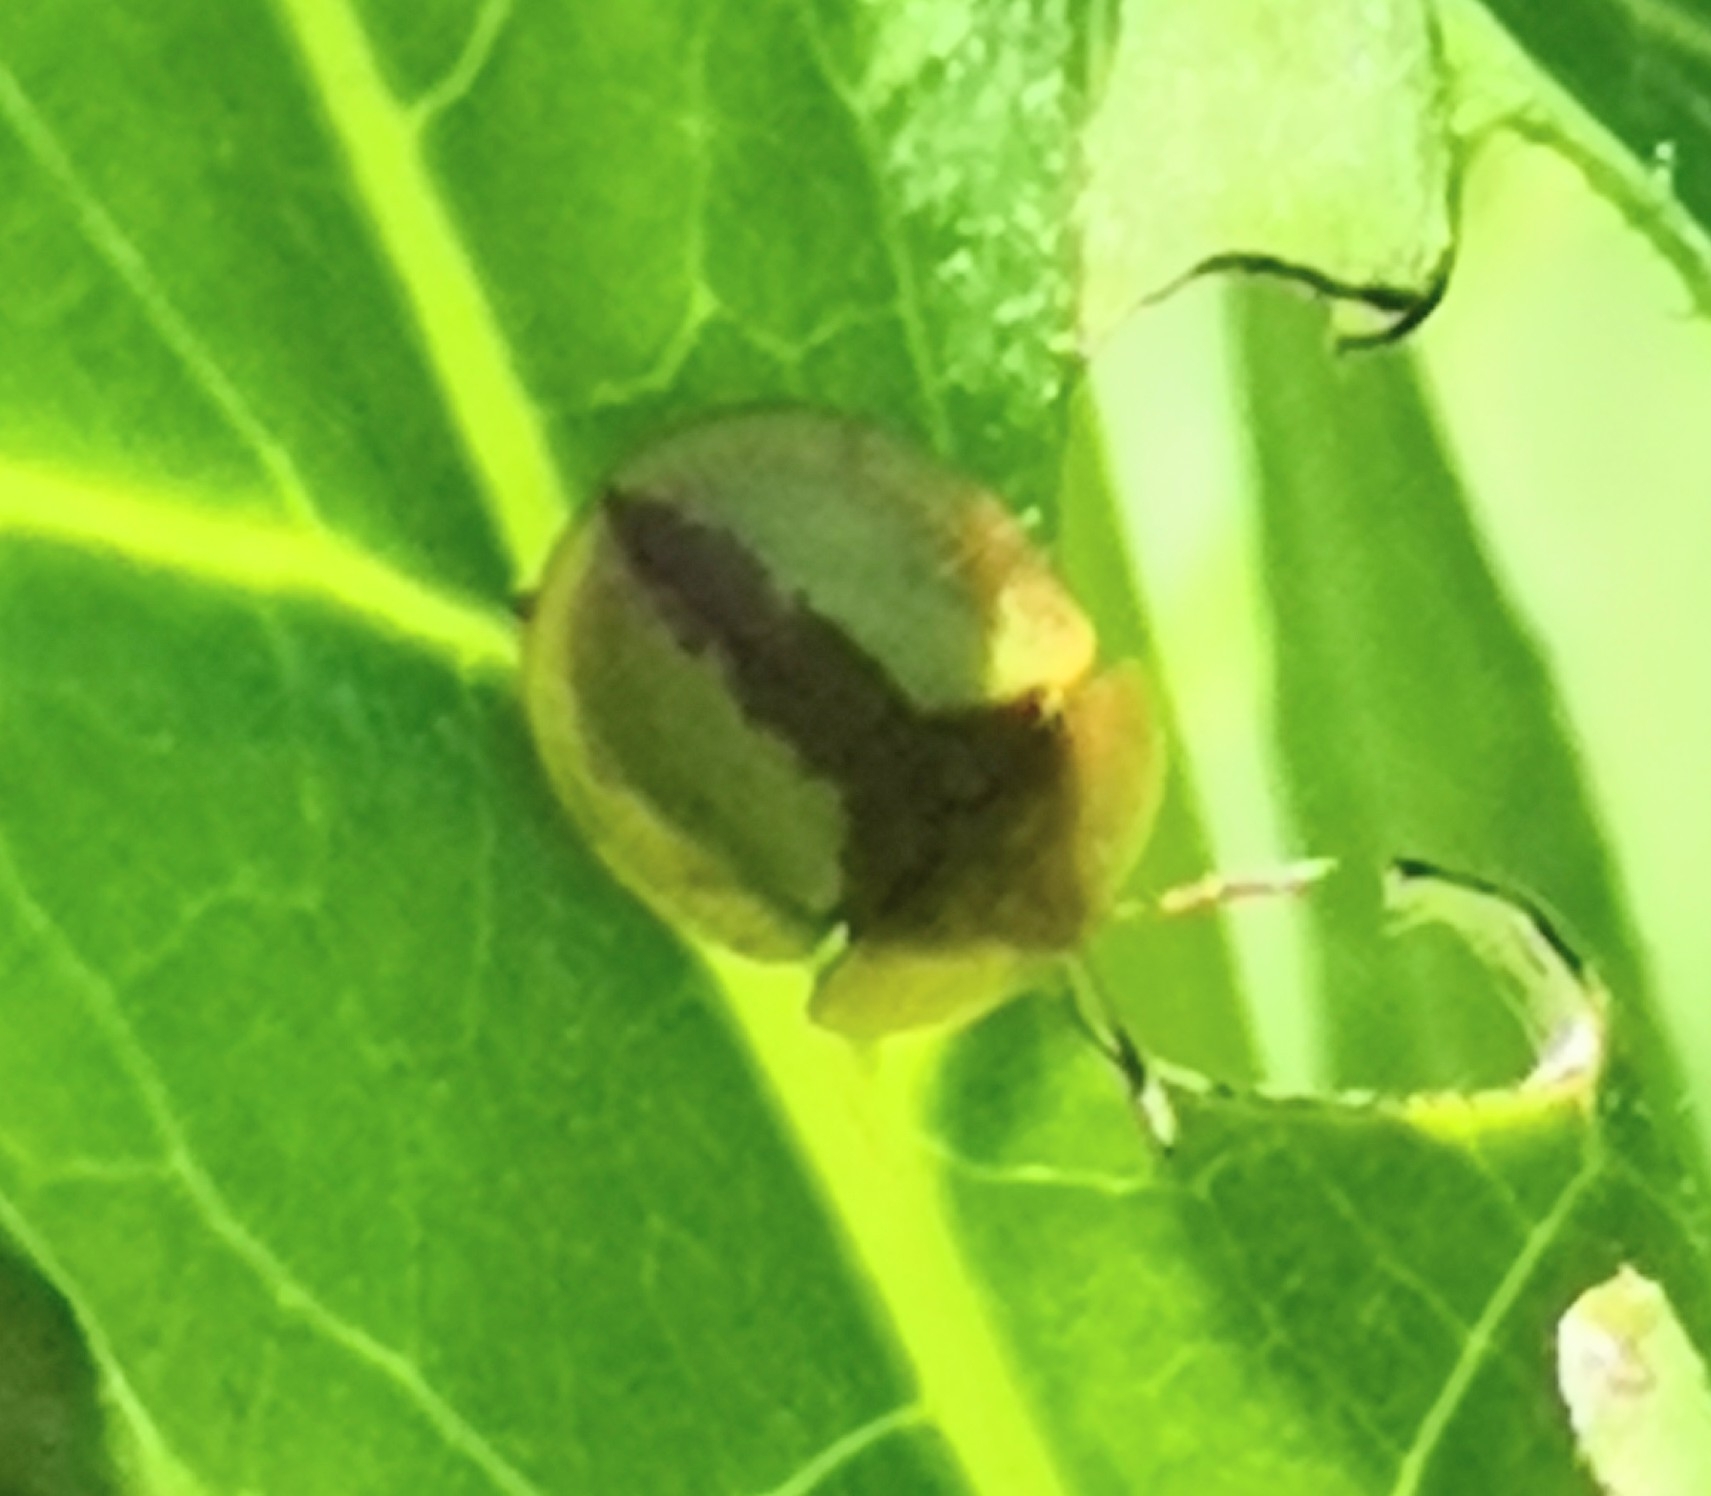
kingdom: Animalia
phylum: Arthropoda
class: Insecta
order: Coleoptera
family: Chrysomelidae
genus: Cassida
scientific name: Cassida vibex
